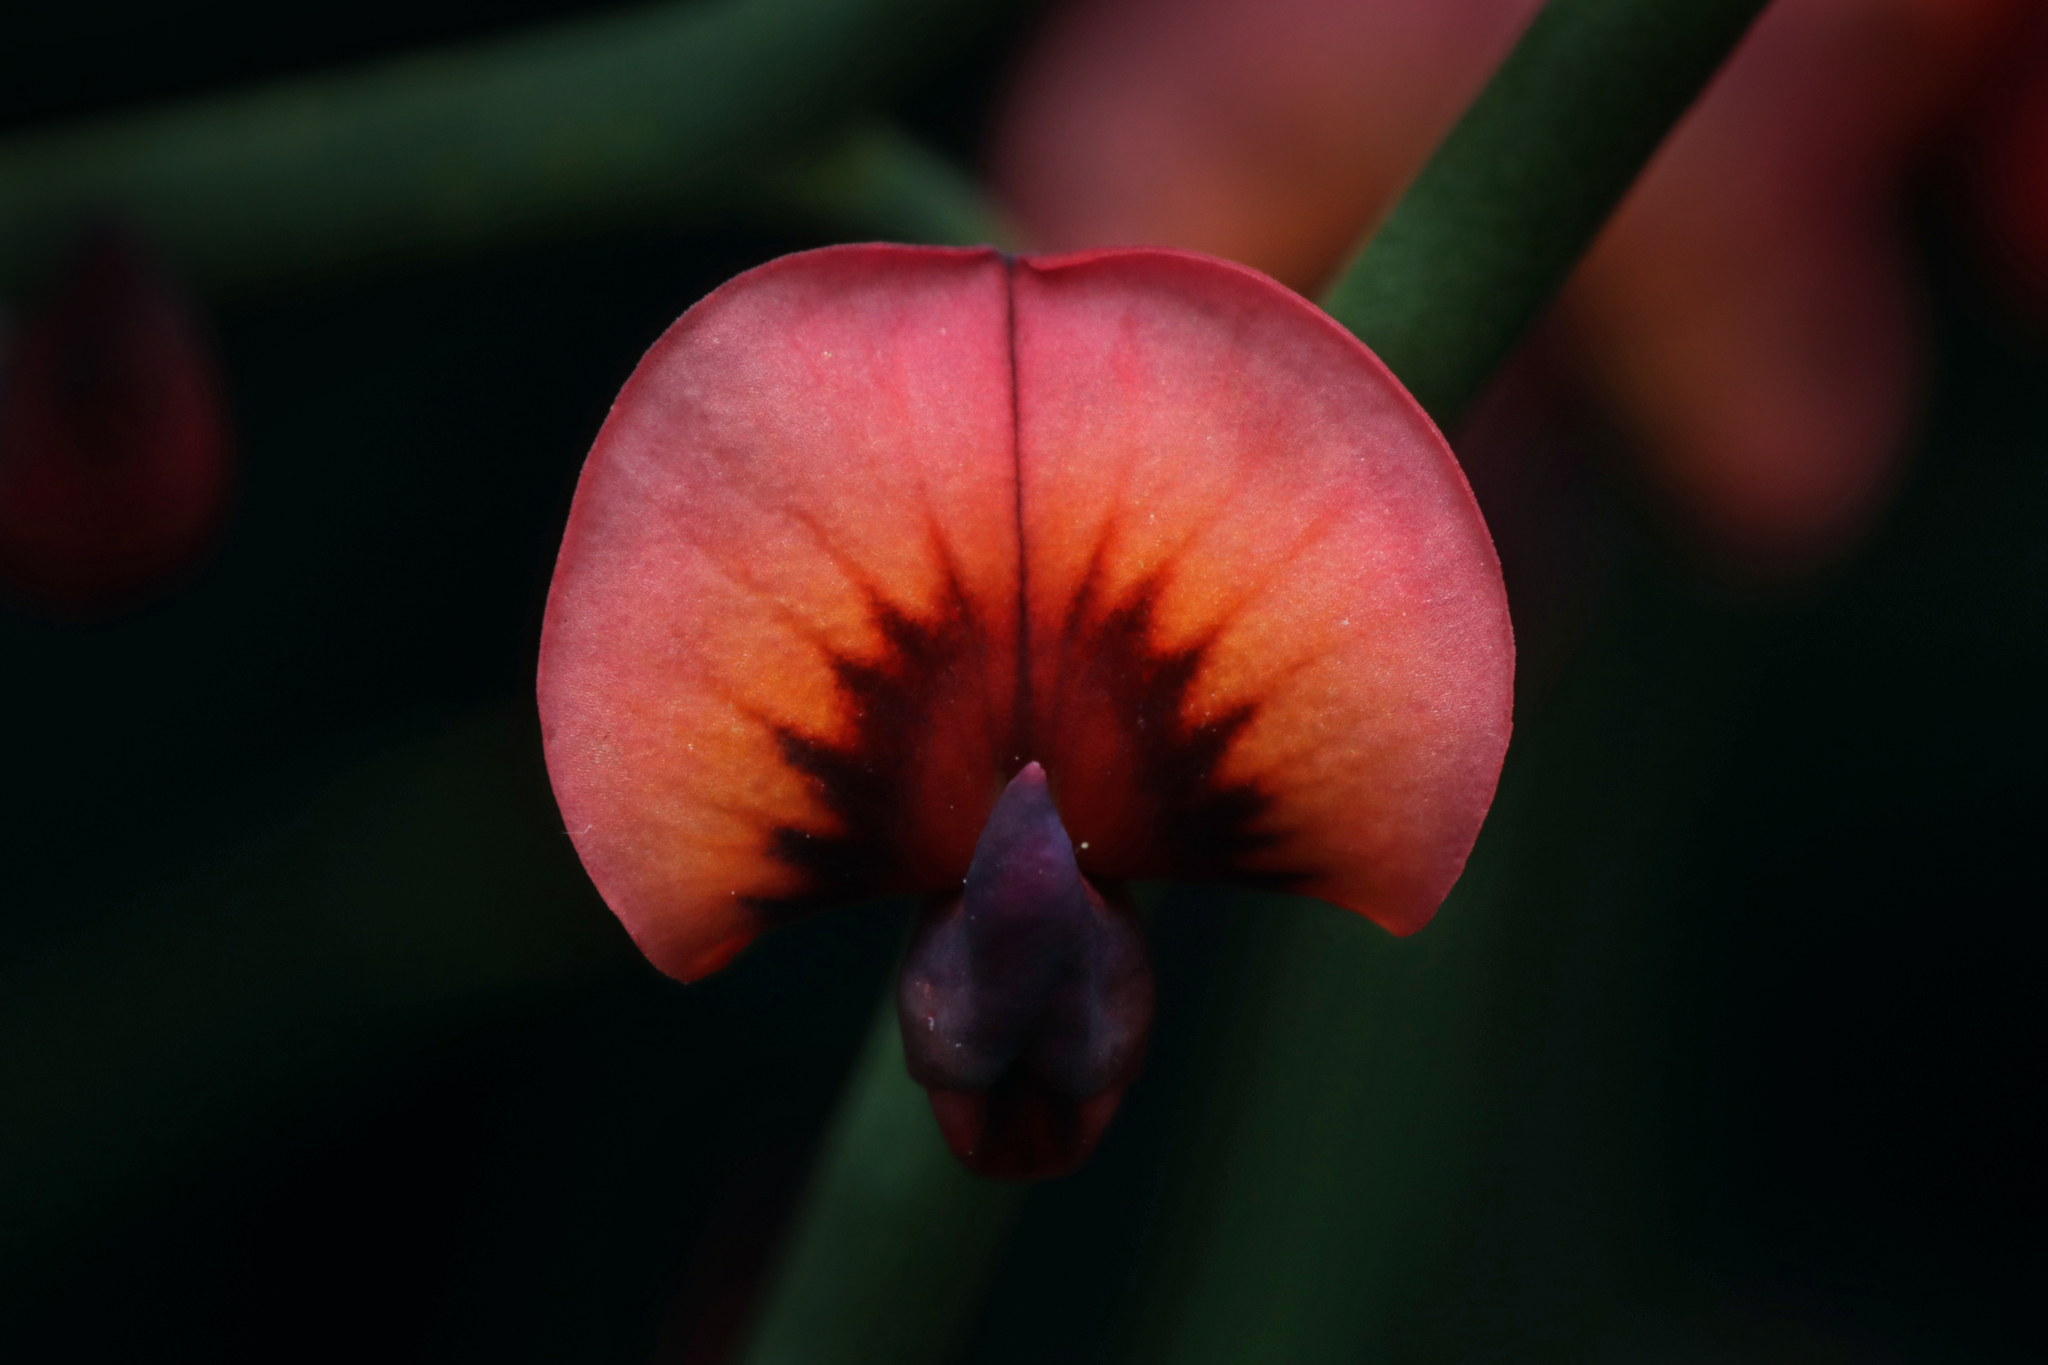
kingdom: Plantae
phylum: Tracheophyta
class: Magnoliopsida
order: Fabales
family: Fabaceae
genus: Daviesia
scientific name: Daviesia brevifolia
